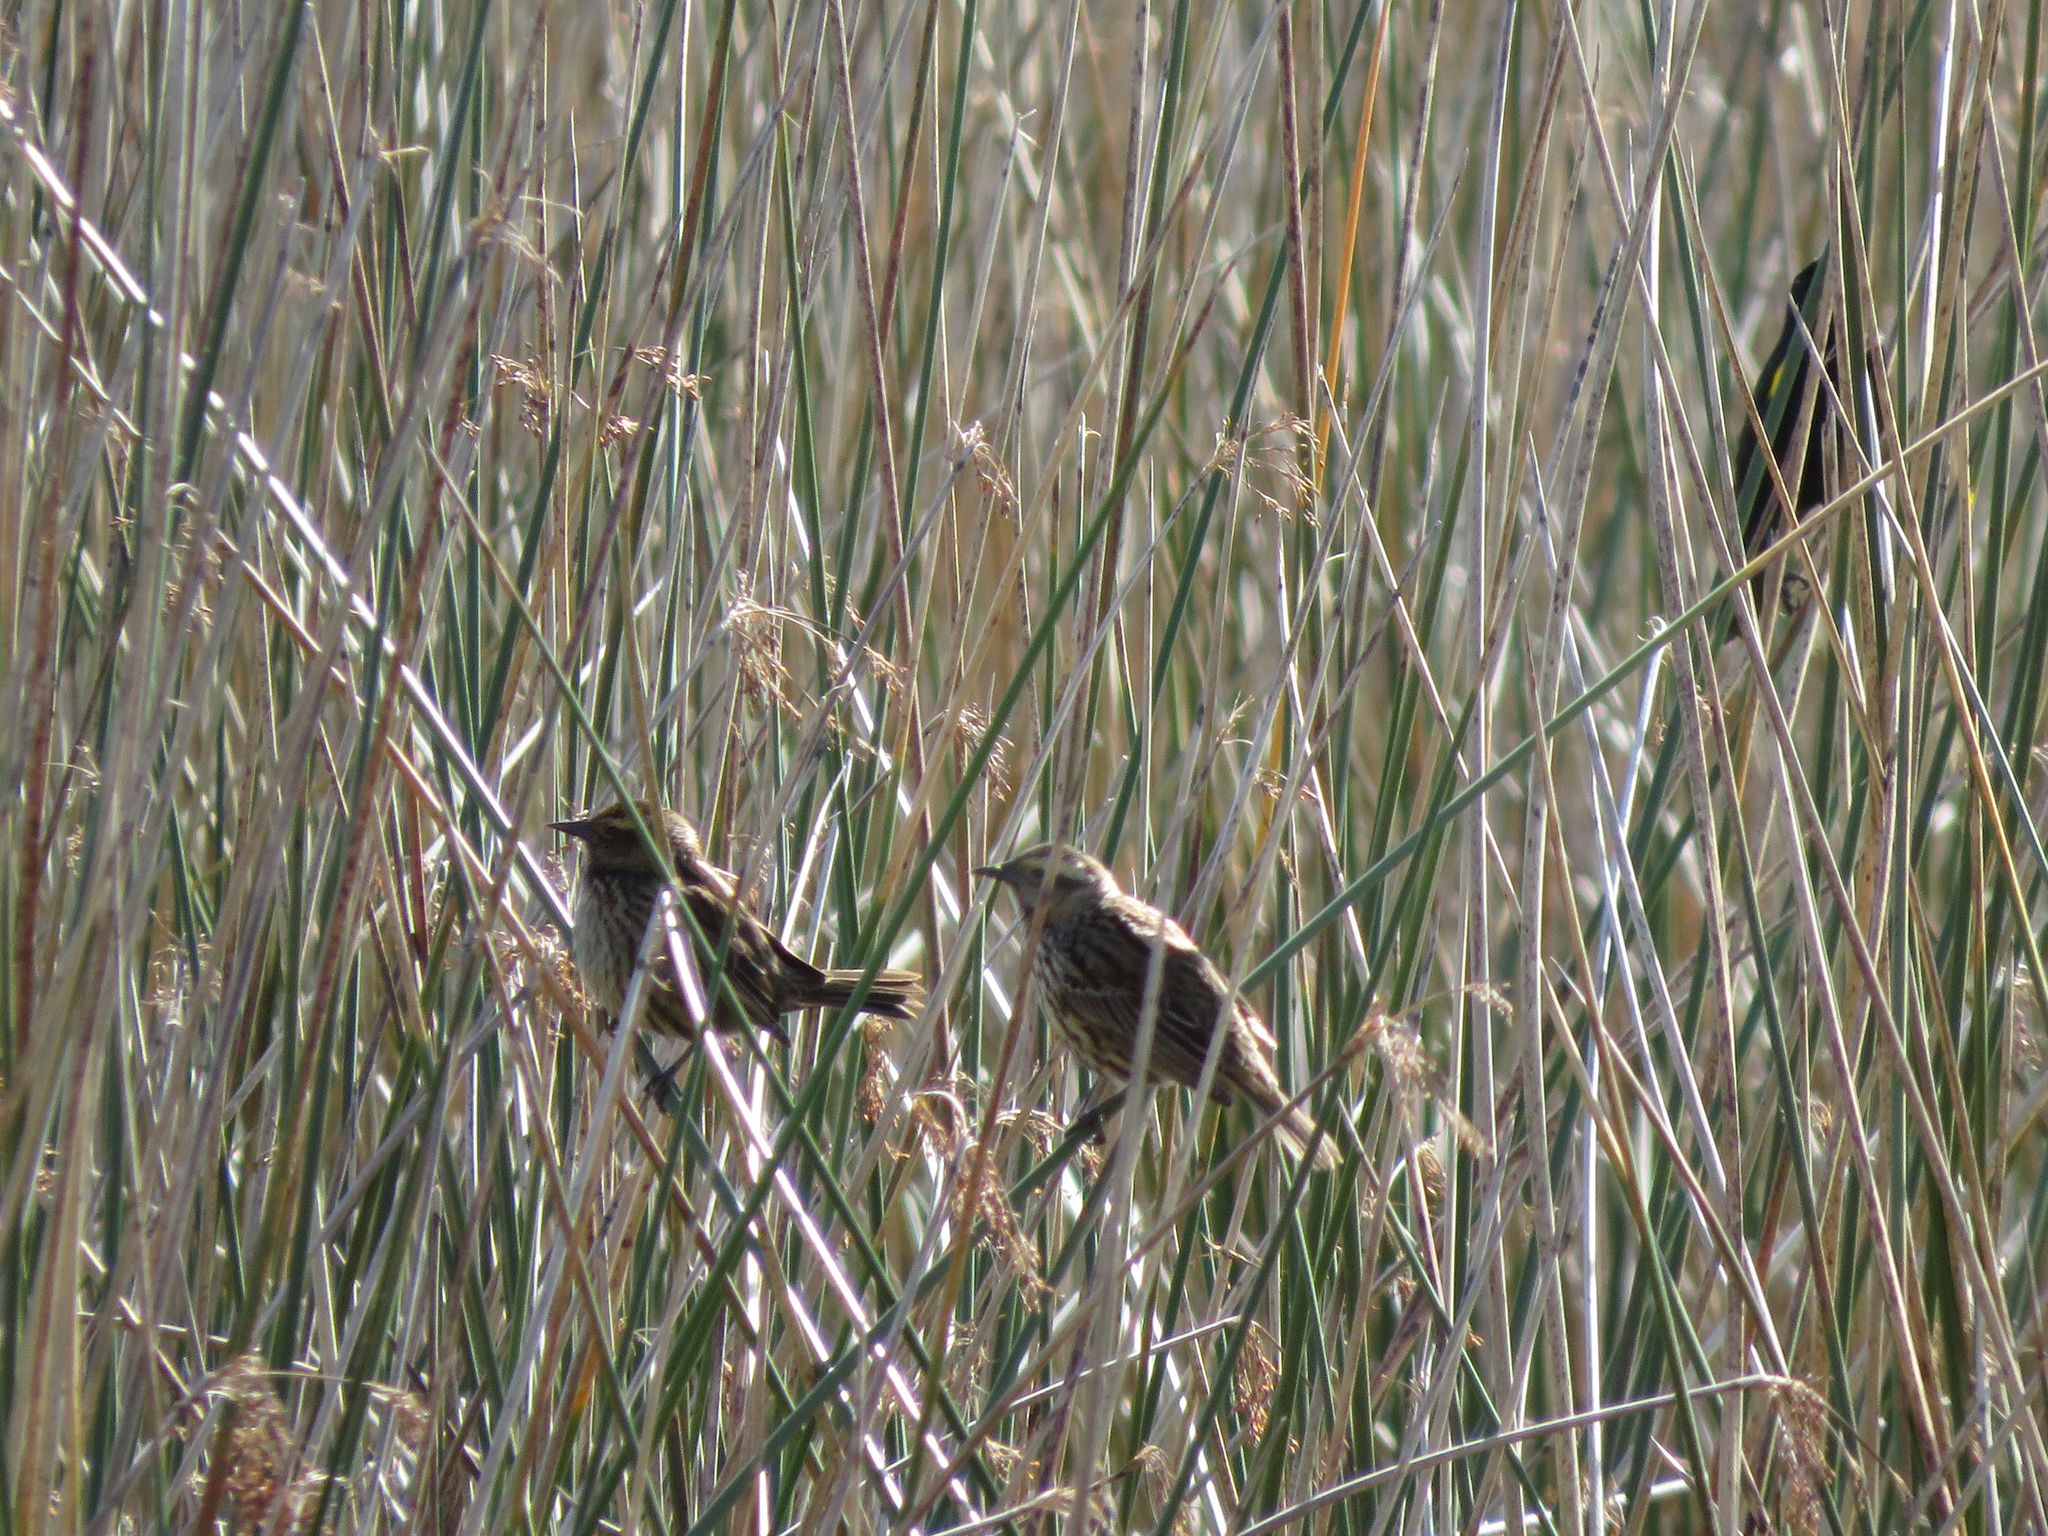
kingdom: Animalia
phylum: Chordata
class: Aves
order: Passeriformes
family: Icteridae
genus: Agelasticus
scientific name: Agelasticus thilius
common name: Yellow-winged blackbird
